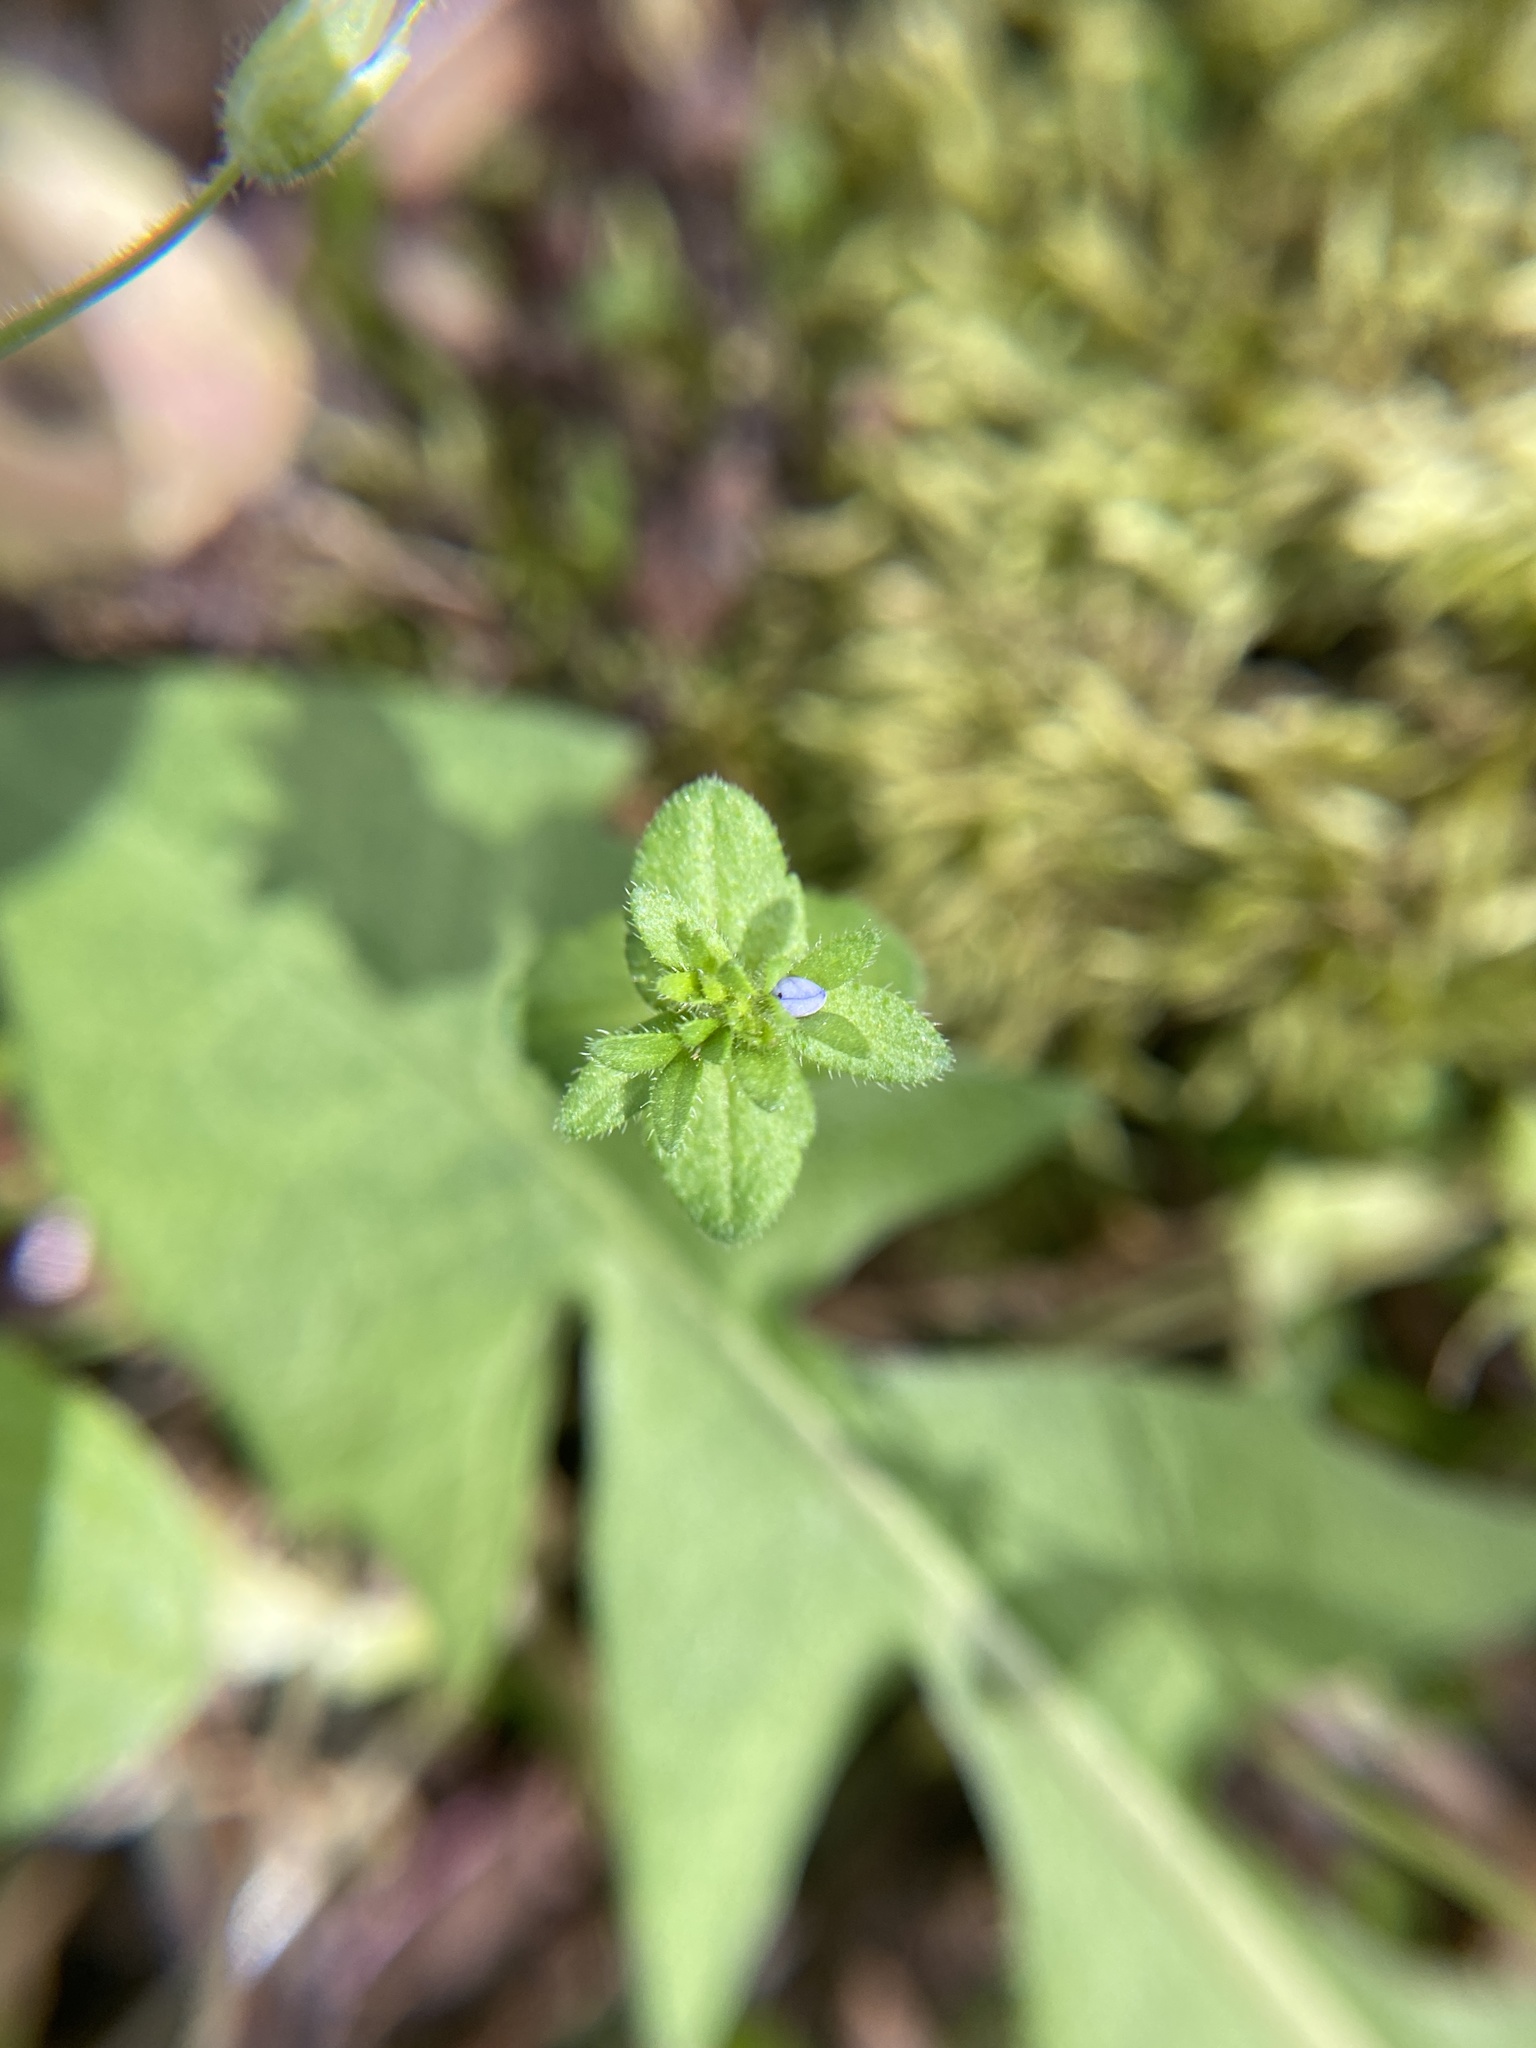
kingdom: Plantae
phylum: Tracheophyta
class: Magnoliopsida
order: Lamiales
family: Plantaginaceae
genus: Veronica
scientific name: Veronica arvensis
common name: Corn speedwell
